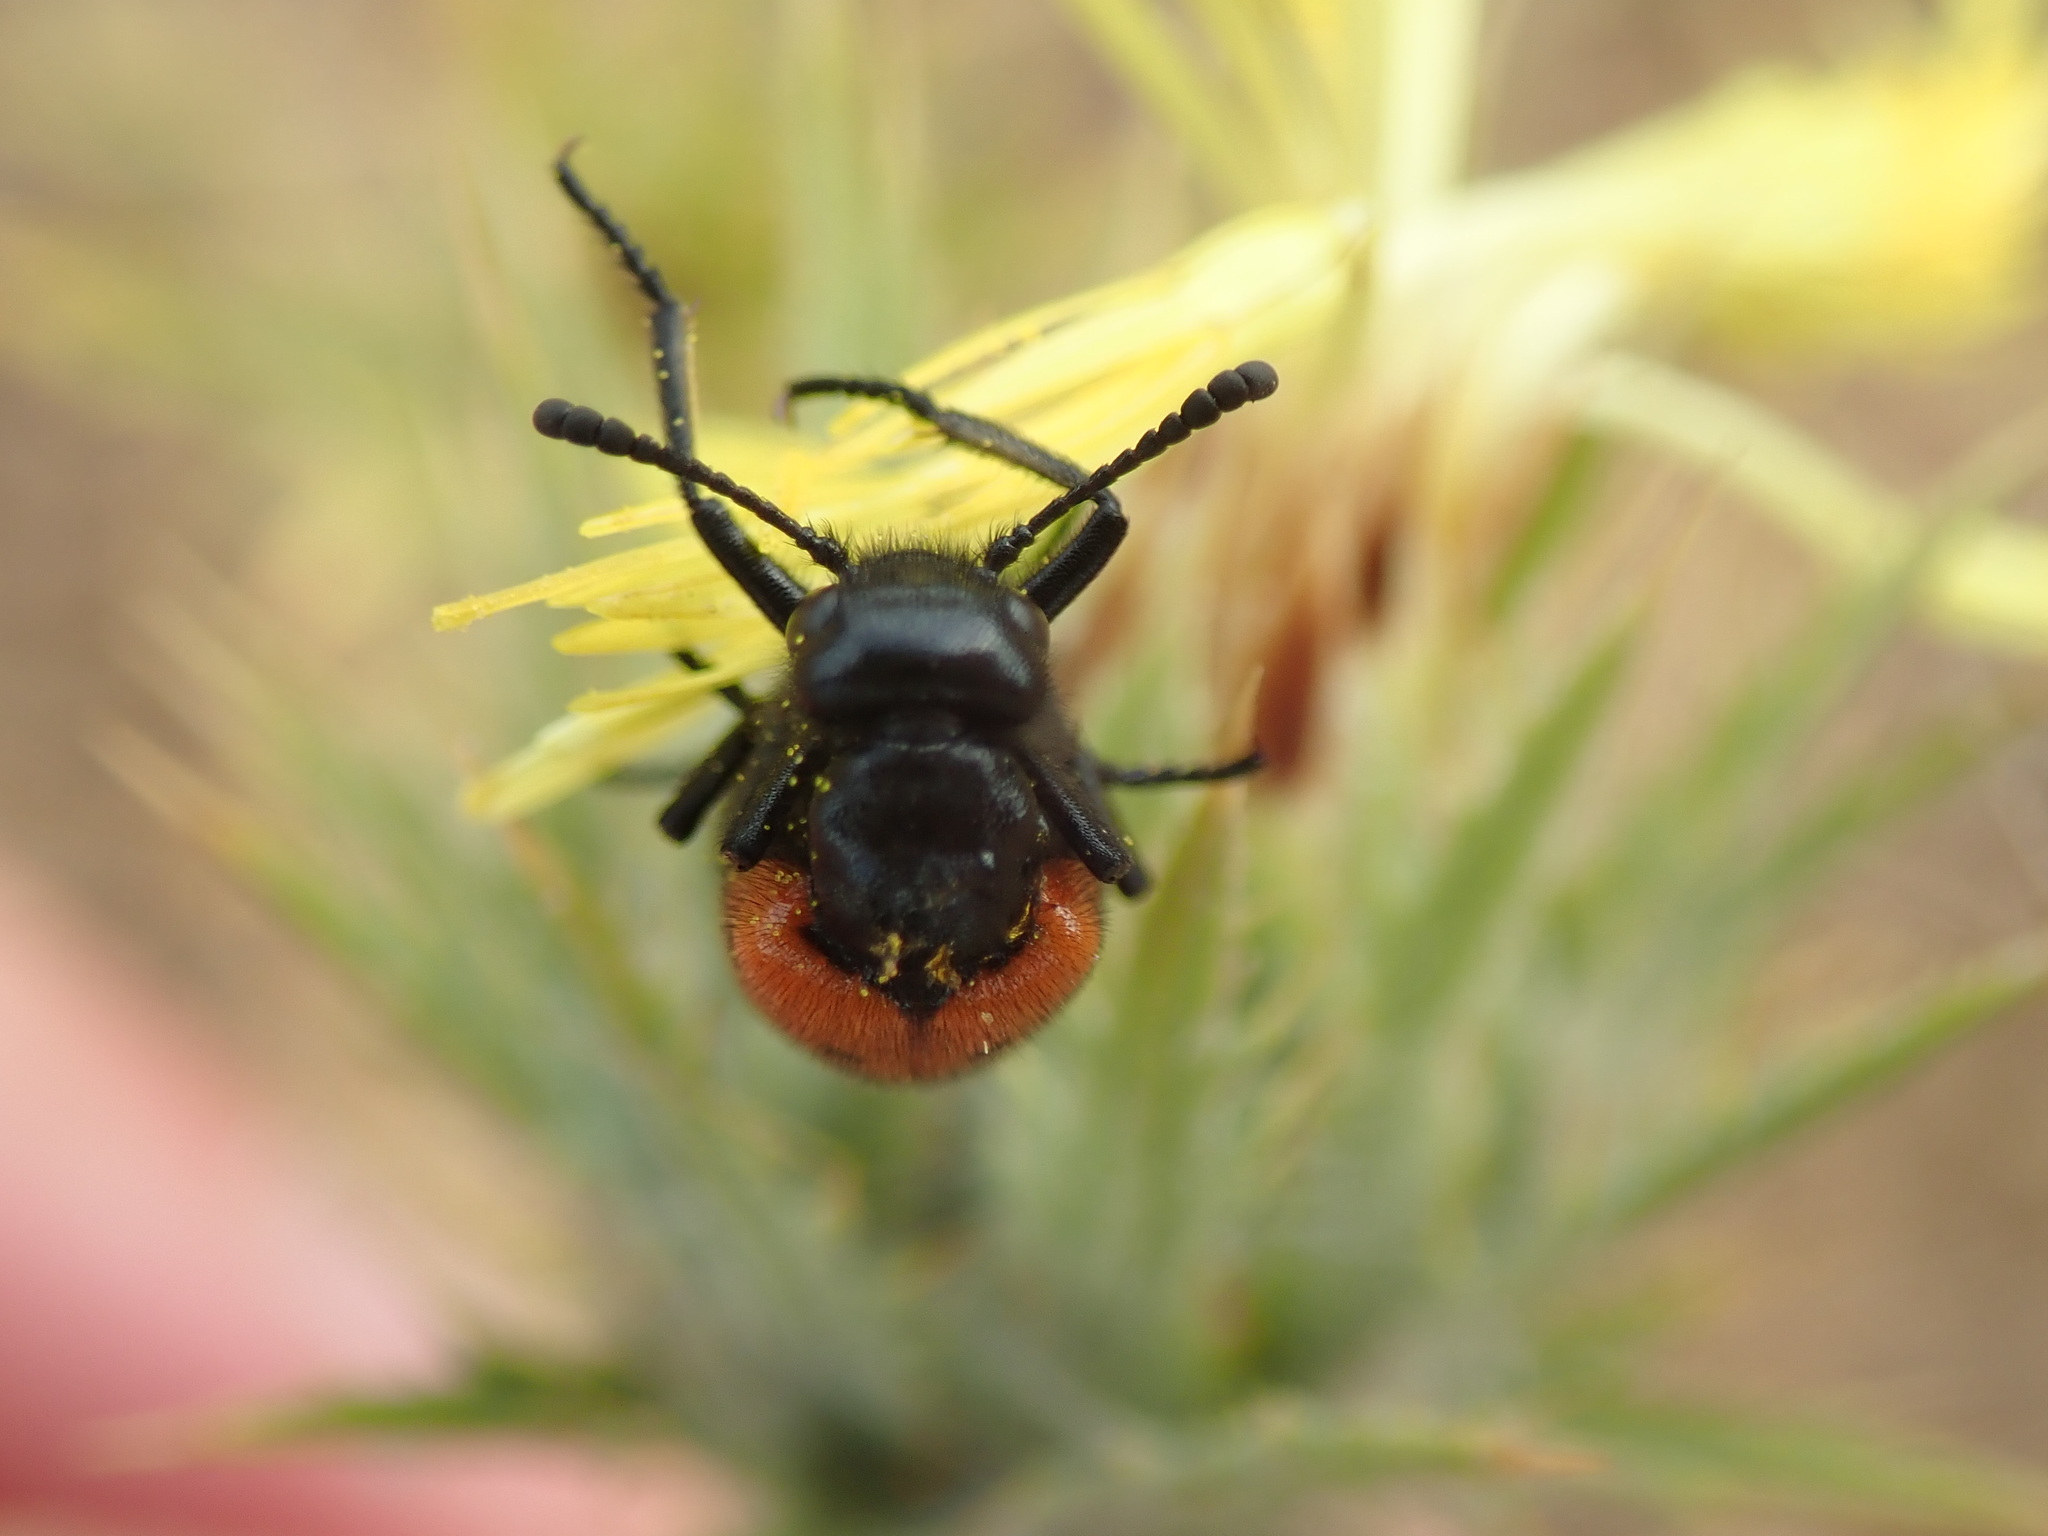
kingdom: Animalia
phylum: Arthropoda
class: Insecta
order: Coleoptera
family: Meloidae
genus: Mylabris
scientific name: Mylabris quadripunctata
